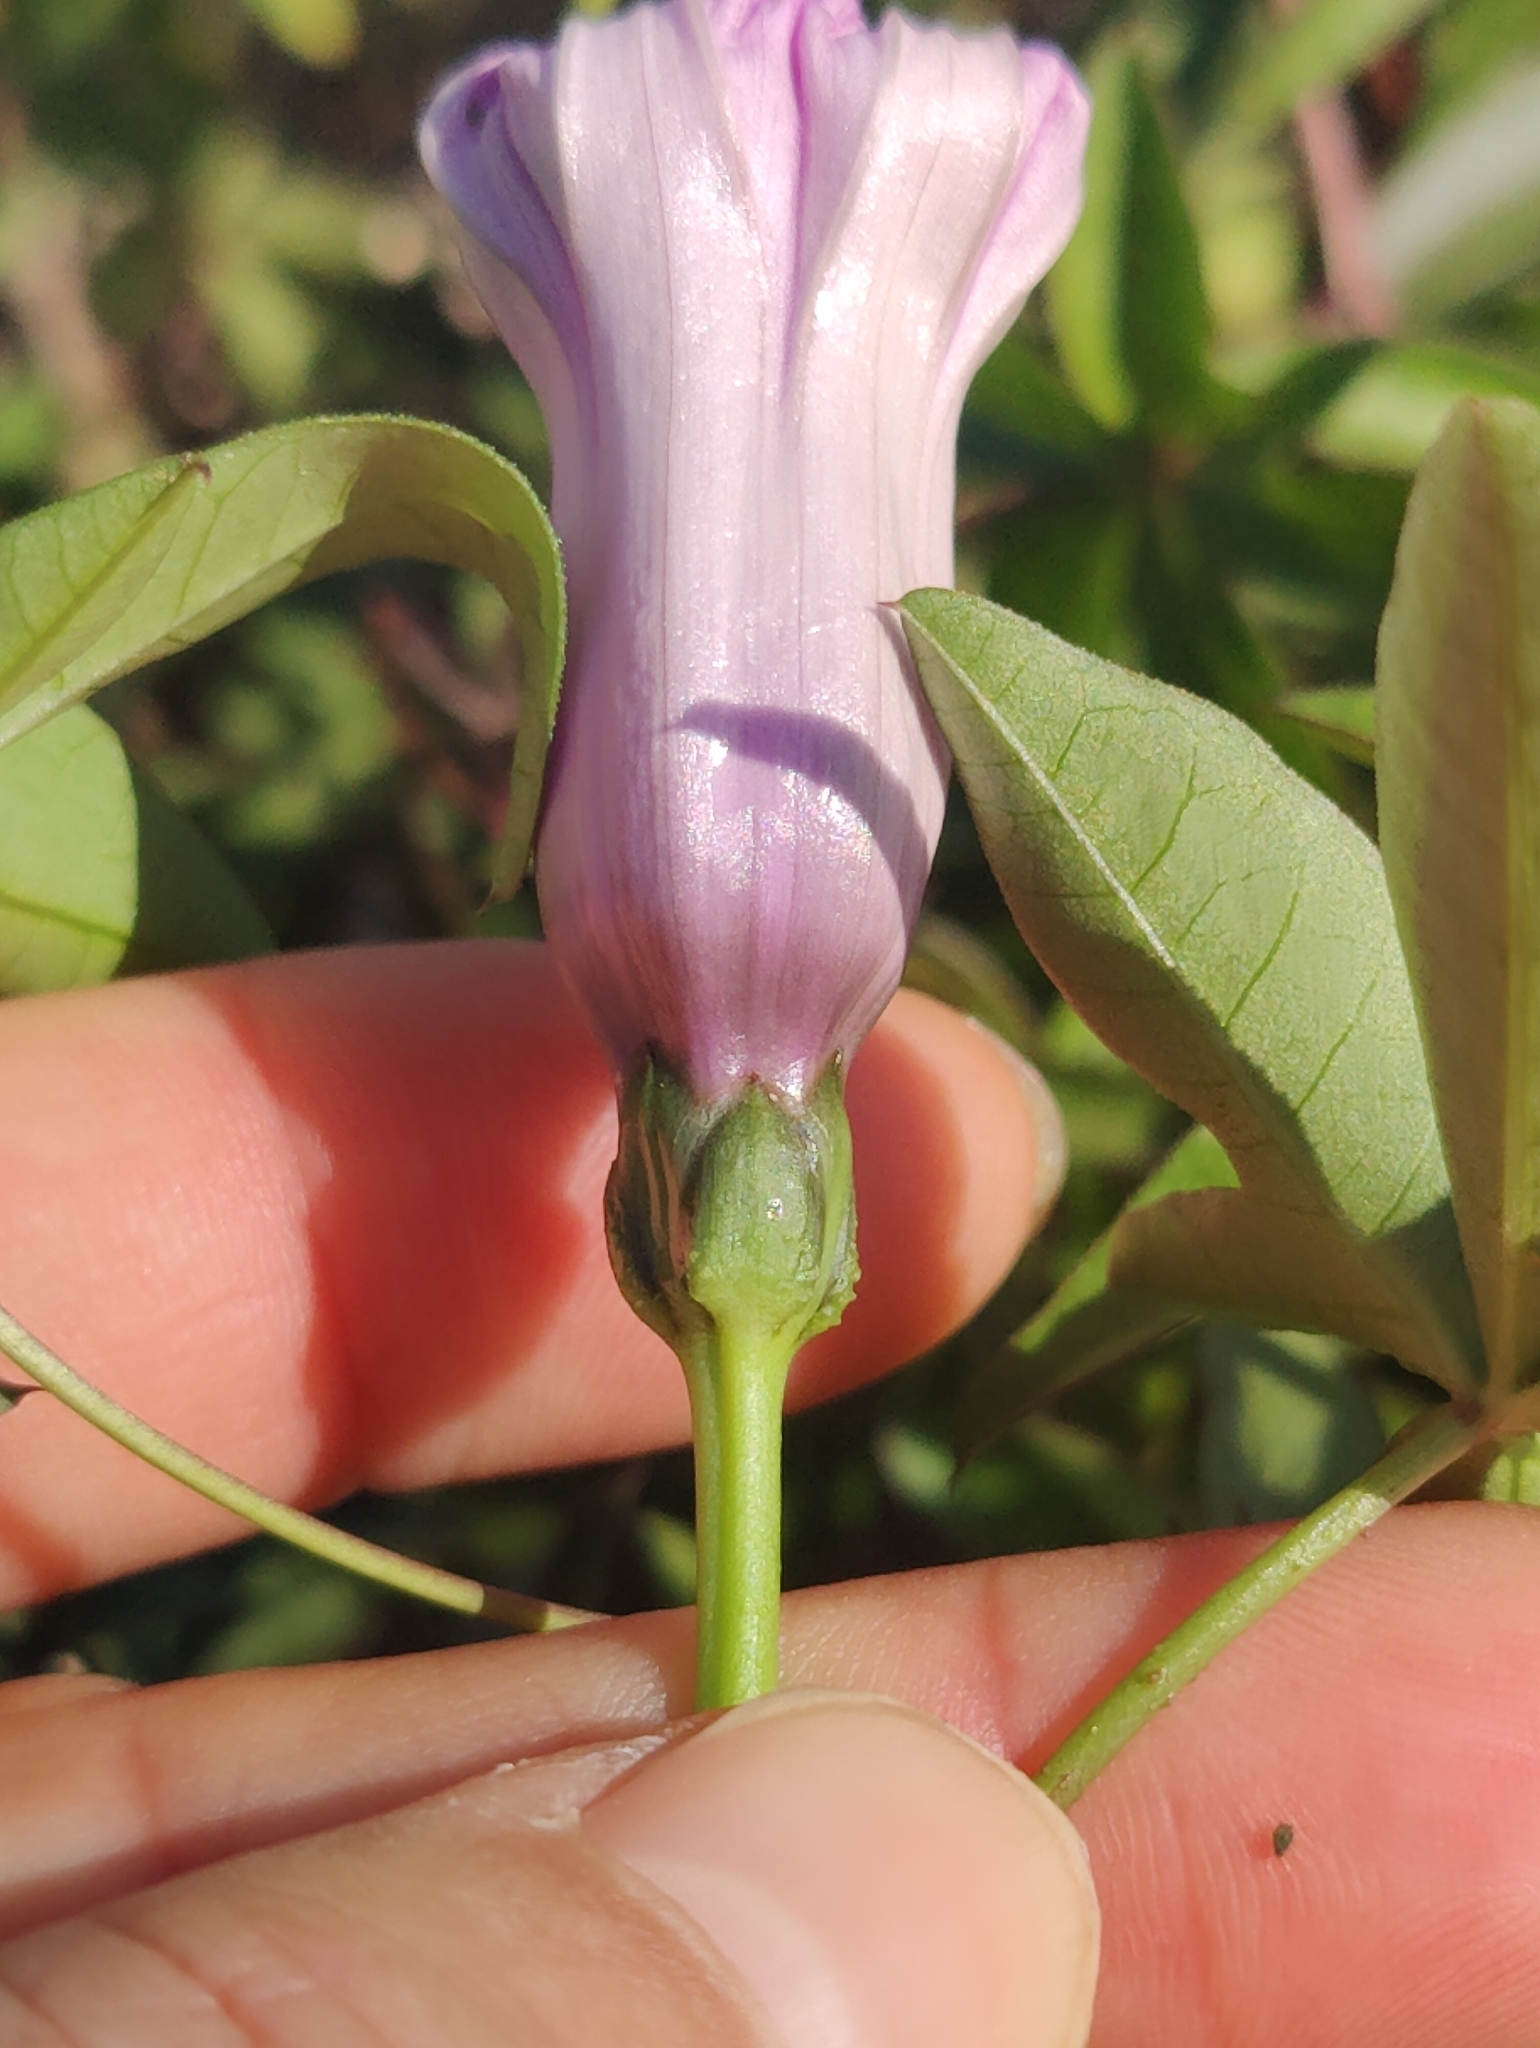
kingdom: Plantae
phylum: Tracheophyta
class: Magnoliopsida
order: Solanales
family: Convolvulaceae
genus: Ipomoea
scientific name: Ipomoea cairica
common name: Mile a minute vine
